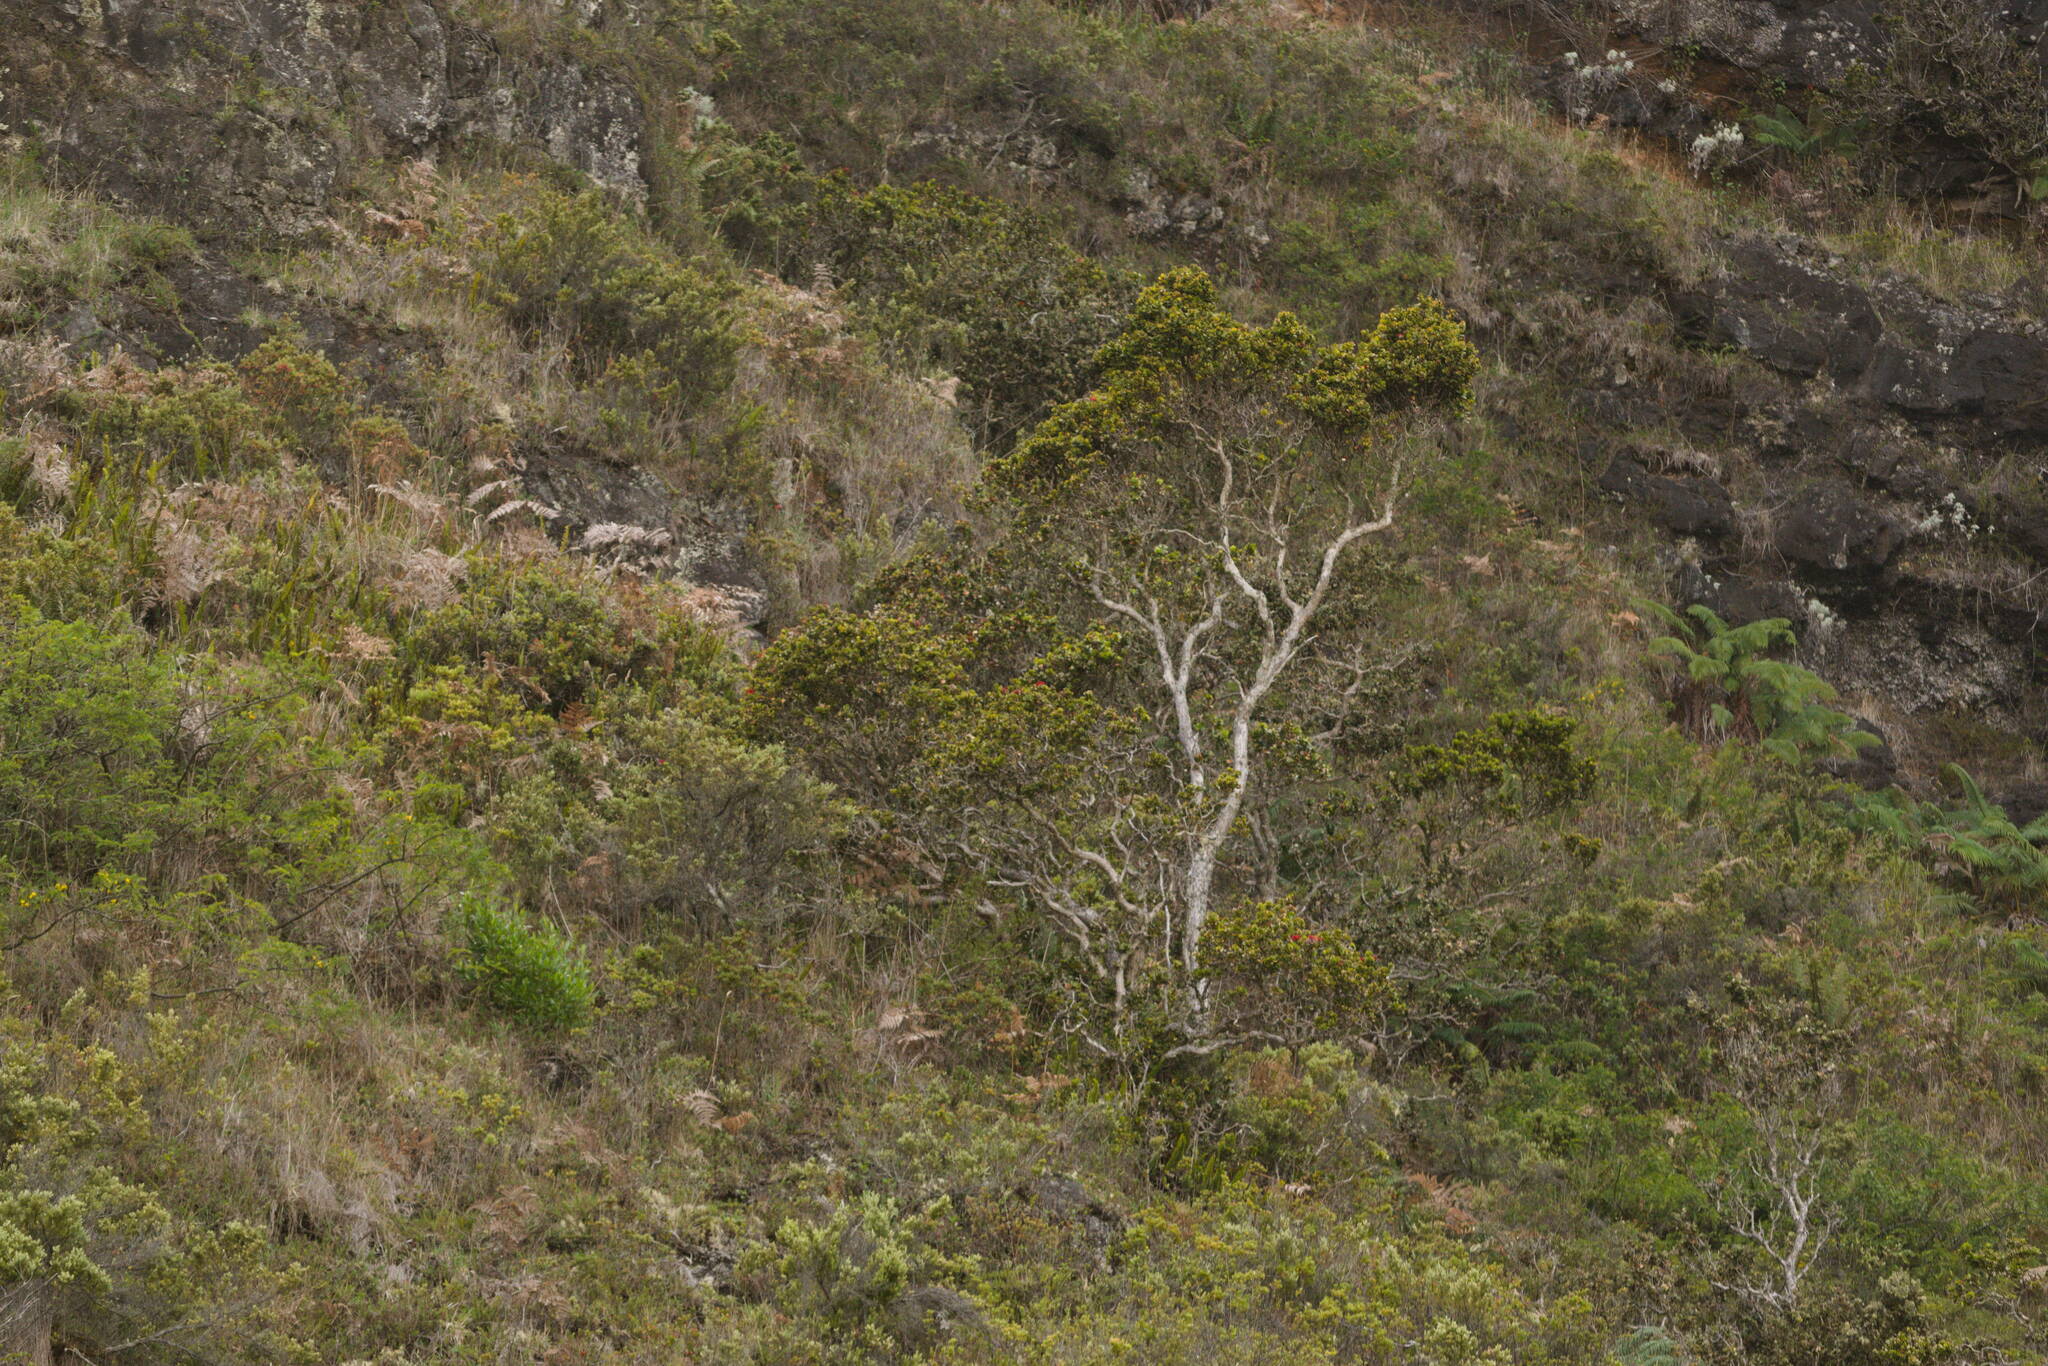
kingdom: Plantae
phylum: Tracheophyta
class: Magnoliopsida
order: Myrtales
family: Myrtaceae
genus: Metrosideros
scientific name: Metrosideros polymorpha
